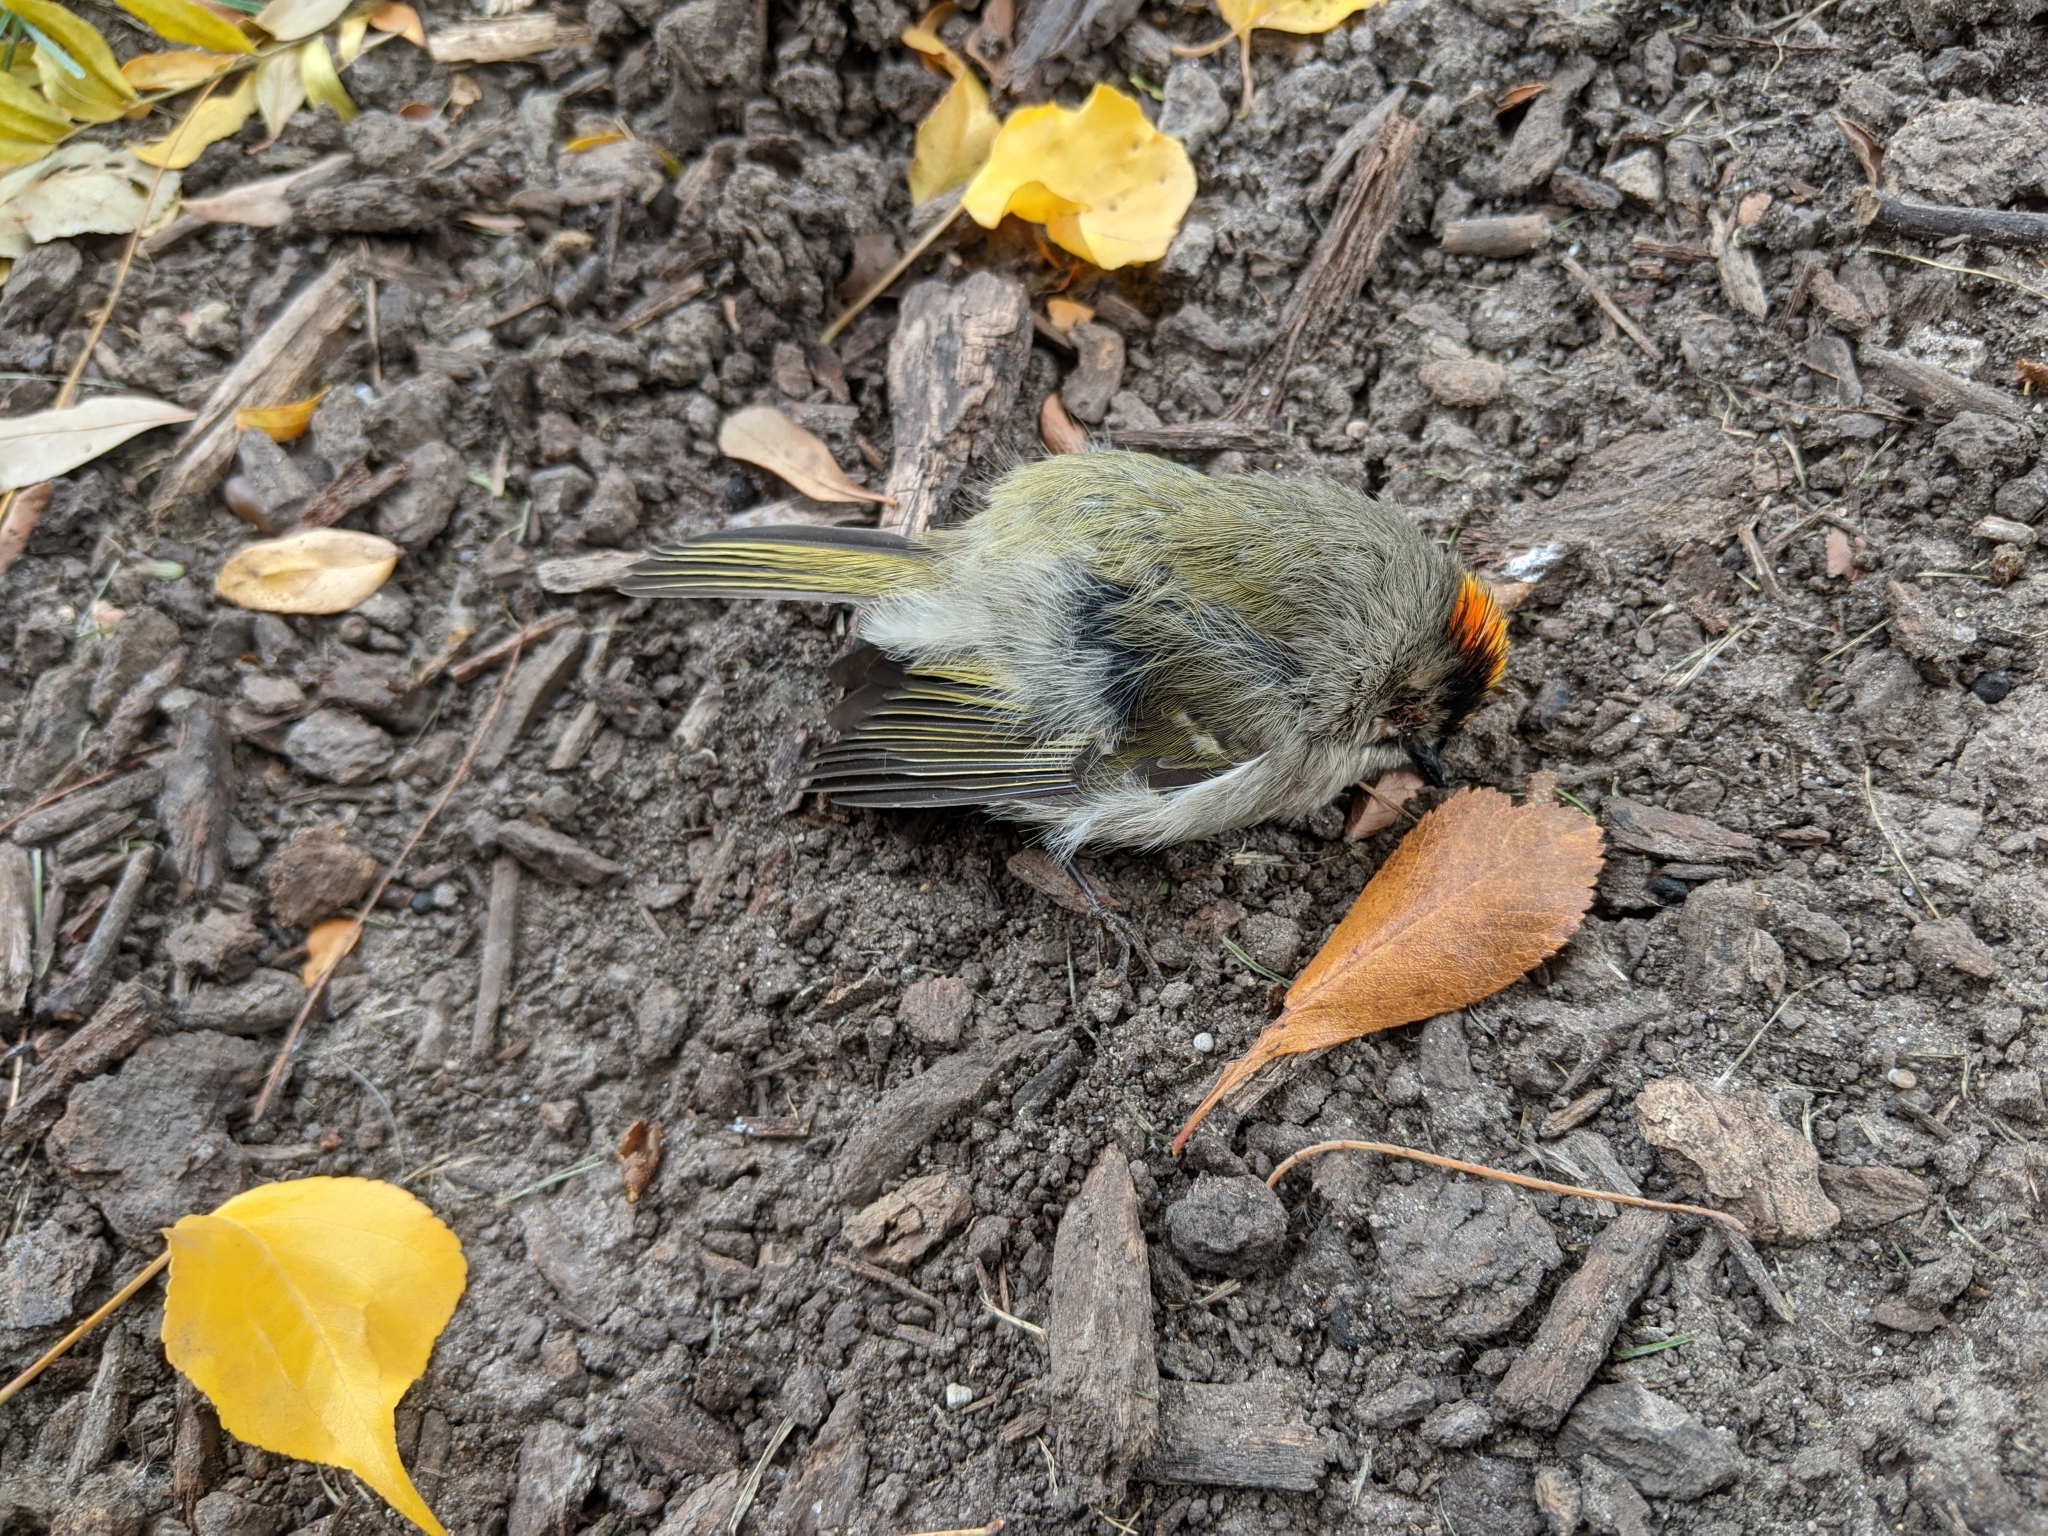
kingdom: Animalia
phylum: Chordata
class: Aves
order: Passeriformes
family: Regulidae
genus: Regulus
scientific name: Regulus satrapa
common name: Golden-crowned kinglet
